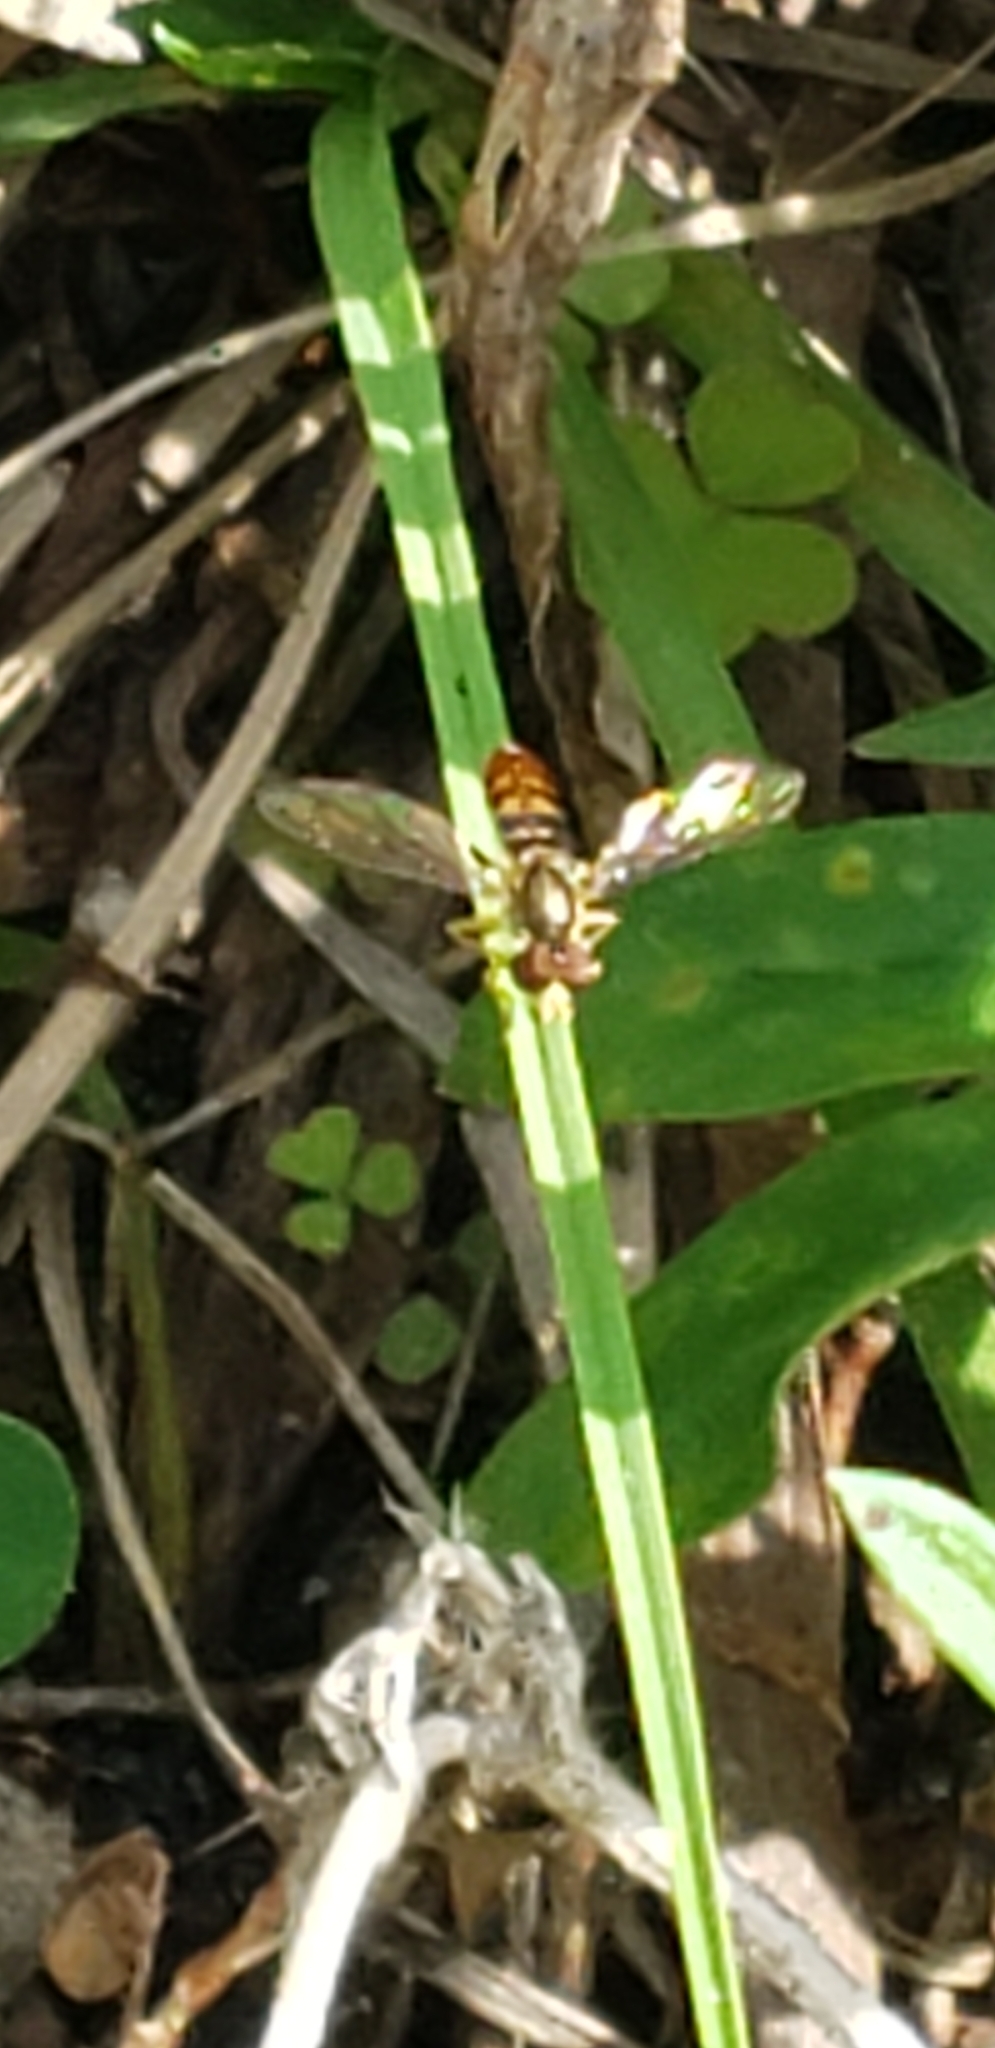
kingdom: Animalia
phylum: Arthropoda
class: Insecta
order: Diptera
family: Syrphidae
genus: Toxomerus
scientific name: Toxomerus floralis
